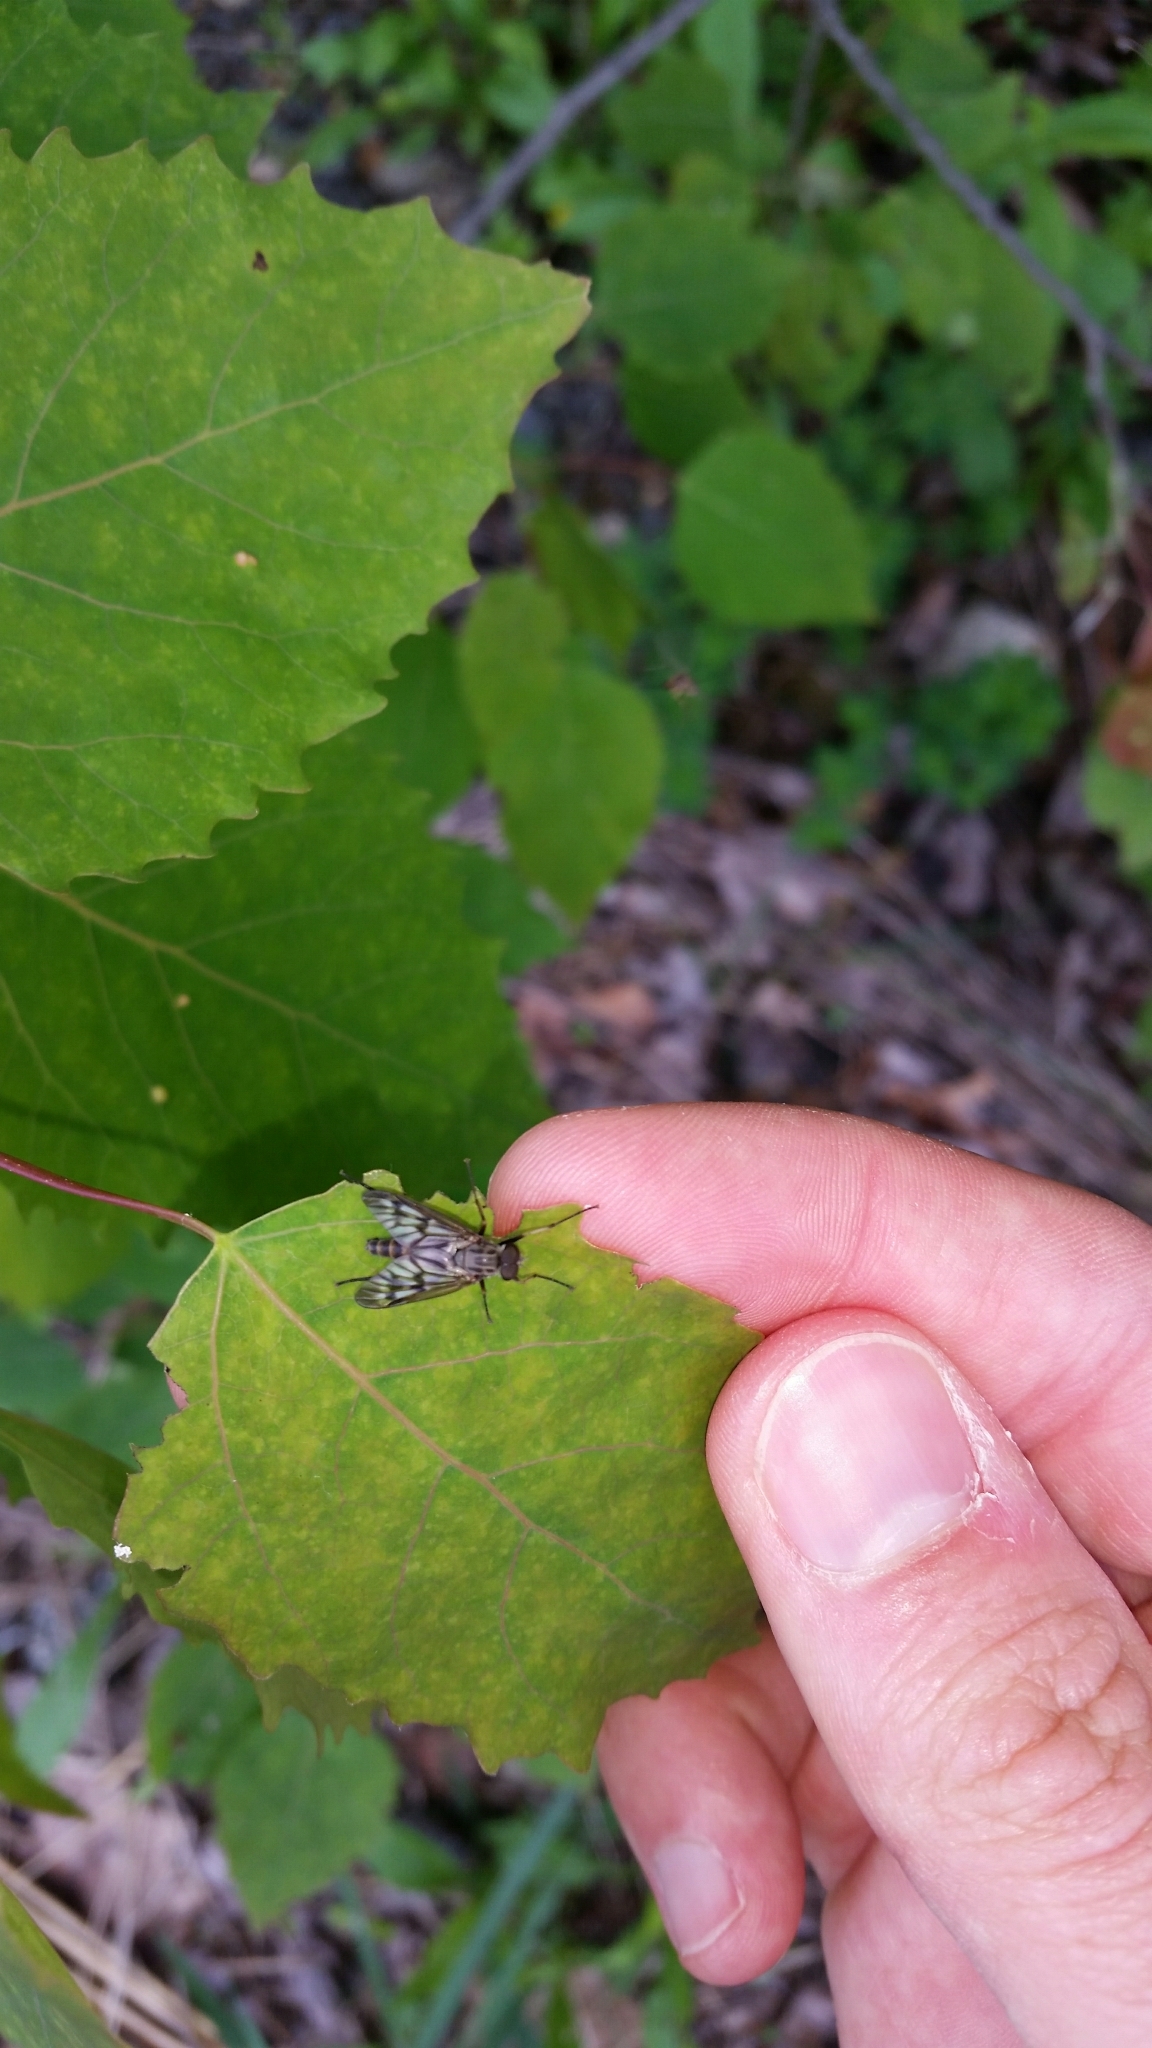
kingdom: Animalia
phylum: Arthropoda
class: Insecta
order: Diptera
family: Rhagionidae
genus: Rhagio
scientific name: Rhagio mystaceus
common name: Common snipe fly
